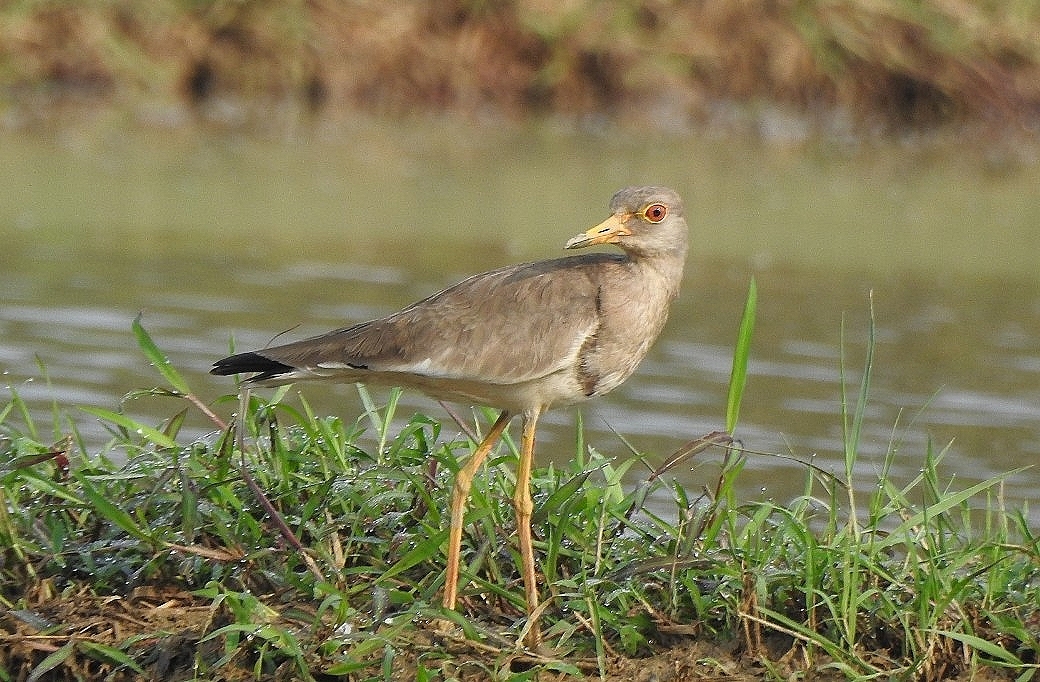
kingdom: Animalia
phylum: Chordata
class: Aves
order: Charadriiformes
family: Charadriidae
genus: Vanellus
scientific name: Vanellus cinereus
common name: Grey-headed lapwing
